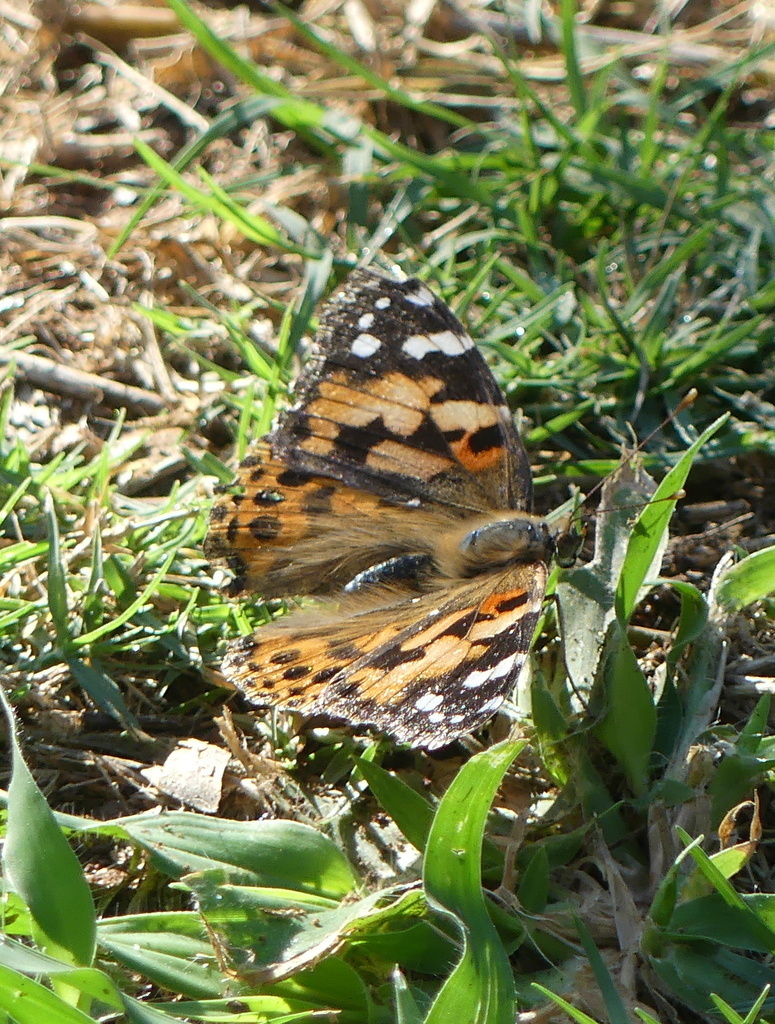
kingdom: Animalia
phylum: Arthropoda
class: Insecta
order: Lepidoptera
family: Nymphalidae
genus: Vanessa
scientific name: Vanessa cardui
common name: Painted lady
